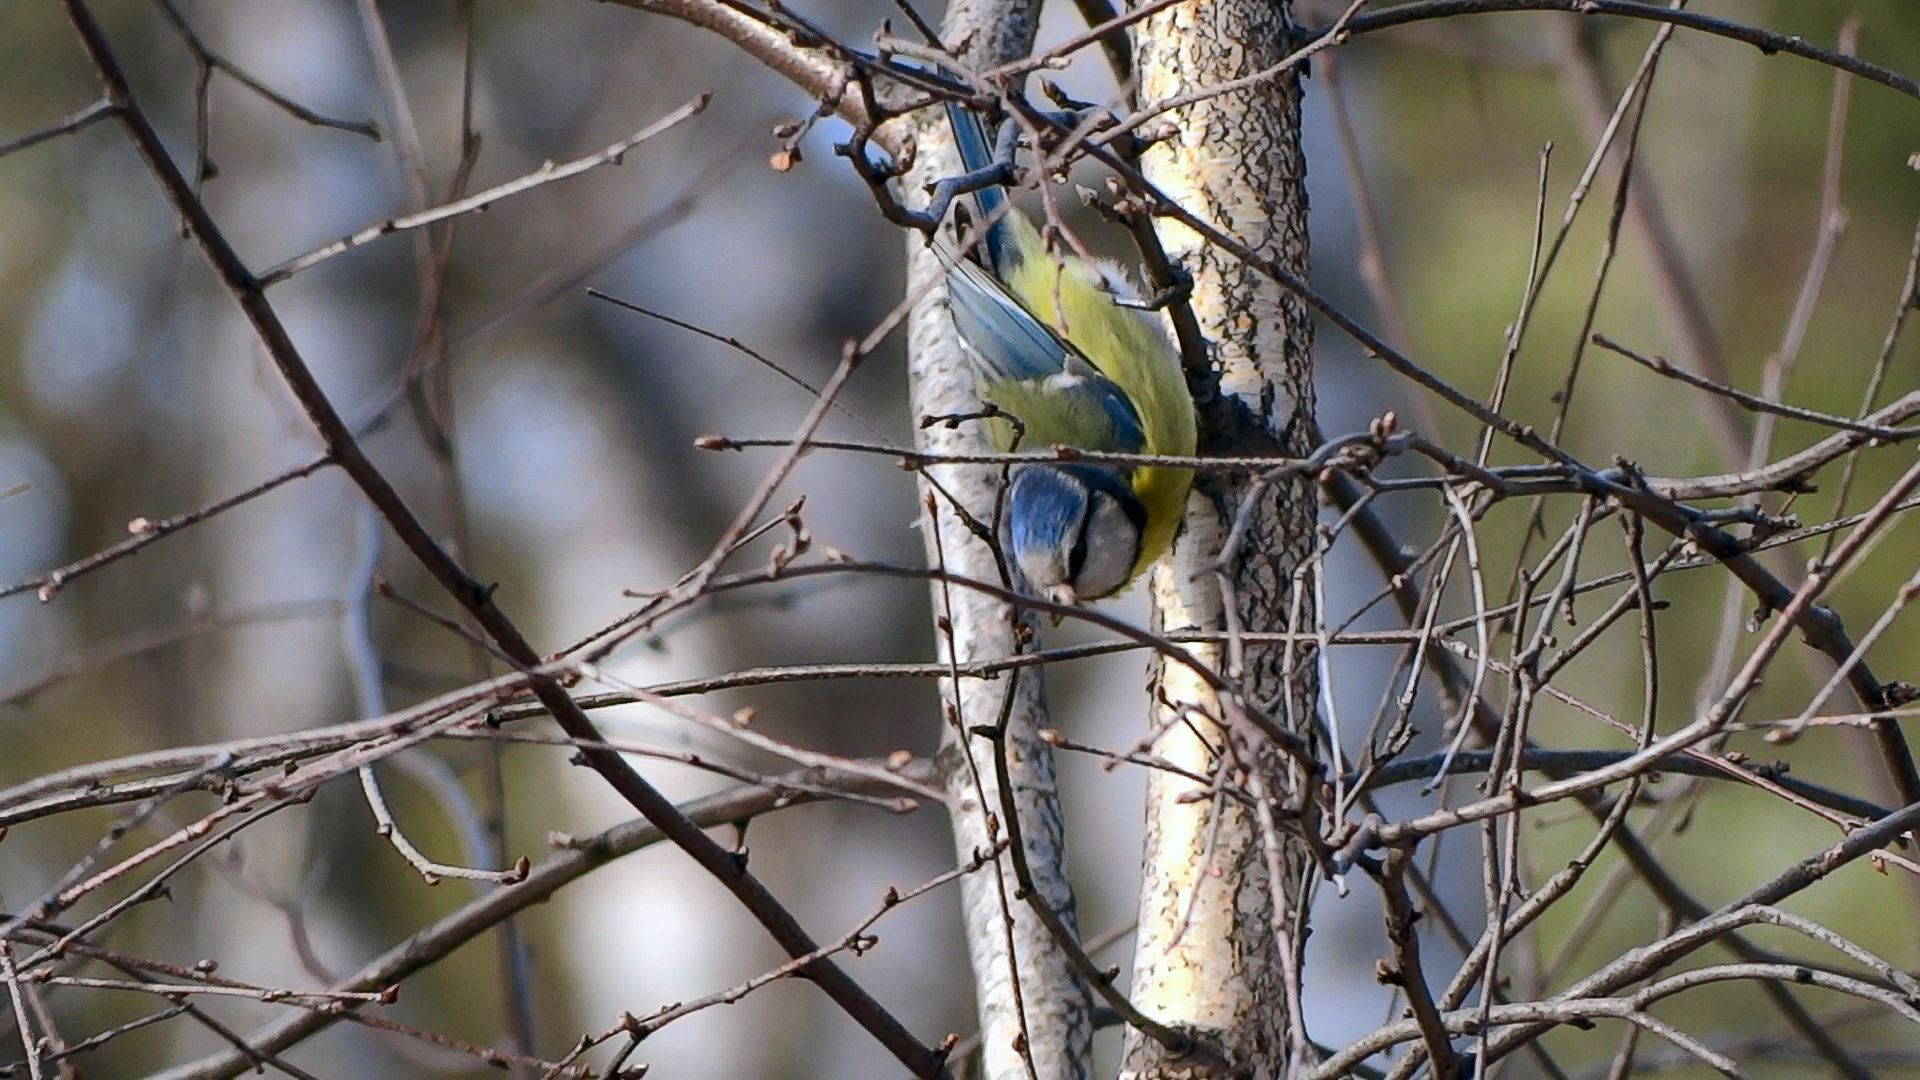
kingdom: Animalia
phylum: Chordata
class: Aves
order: Passeriformes
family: Paridae
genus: Cyanistes
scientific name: Cyanistes caeruleus
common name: Eurasian blue tit
